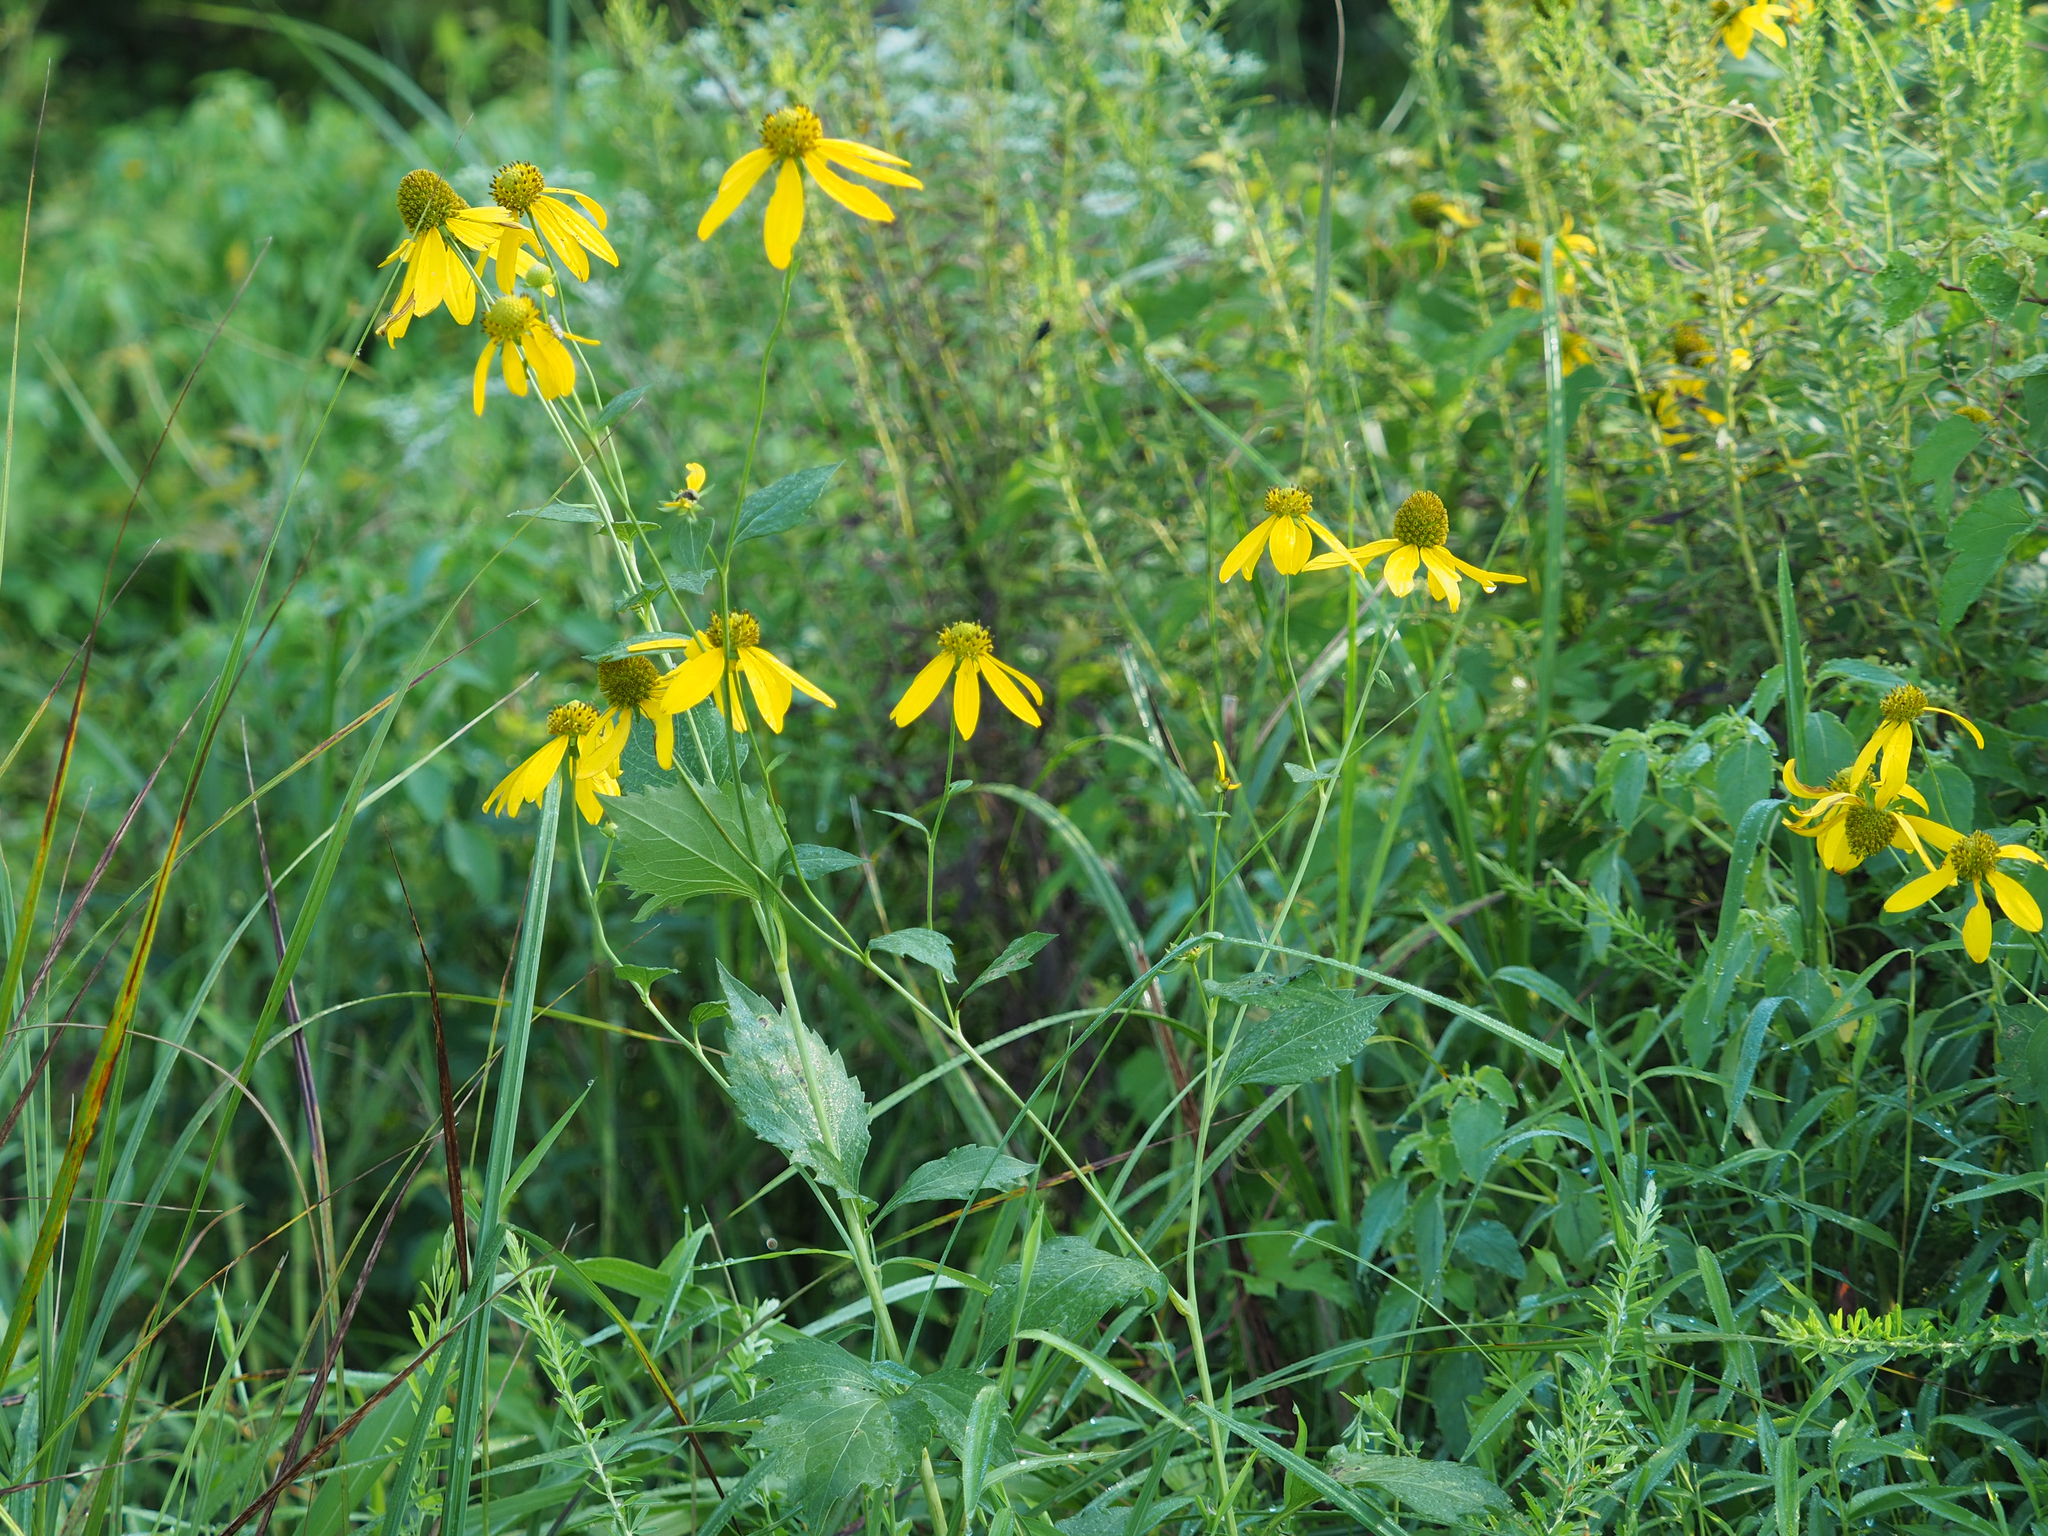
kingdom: Plantae
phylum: Tracheophyta
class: Magnoliopsida
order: Asterales
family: Asteraceae
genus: Rudbeckia
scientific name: Rudbeckia laciniata
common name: Coneflower
